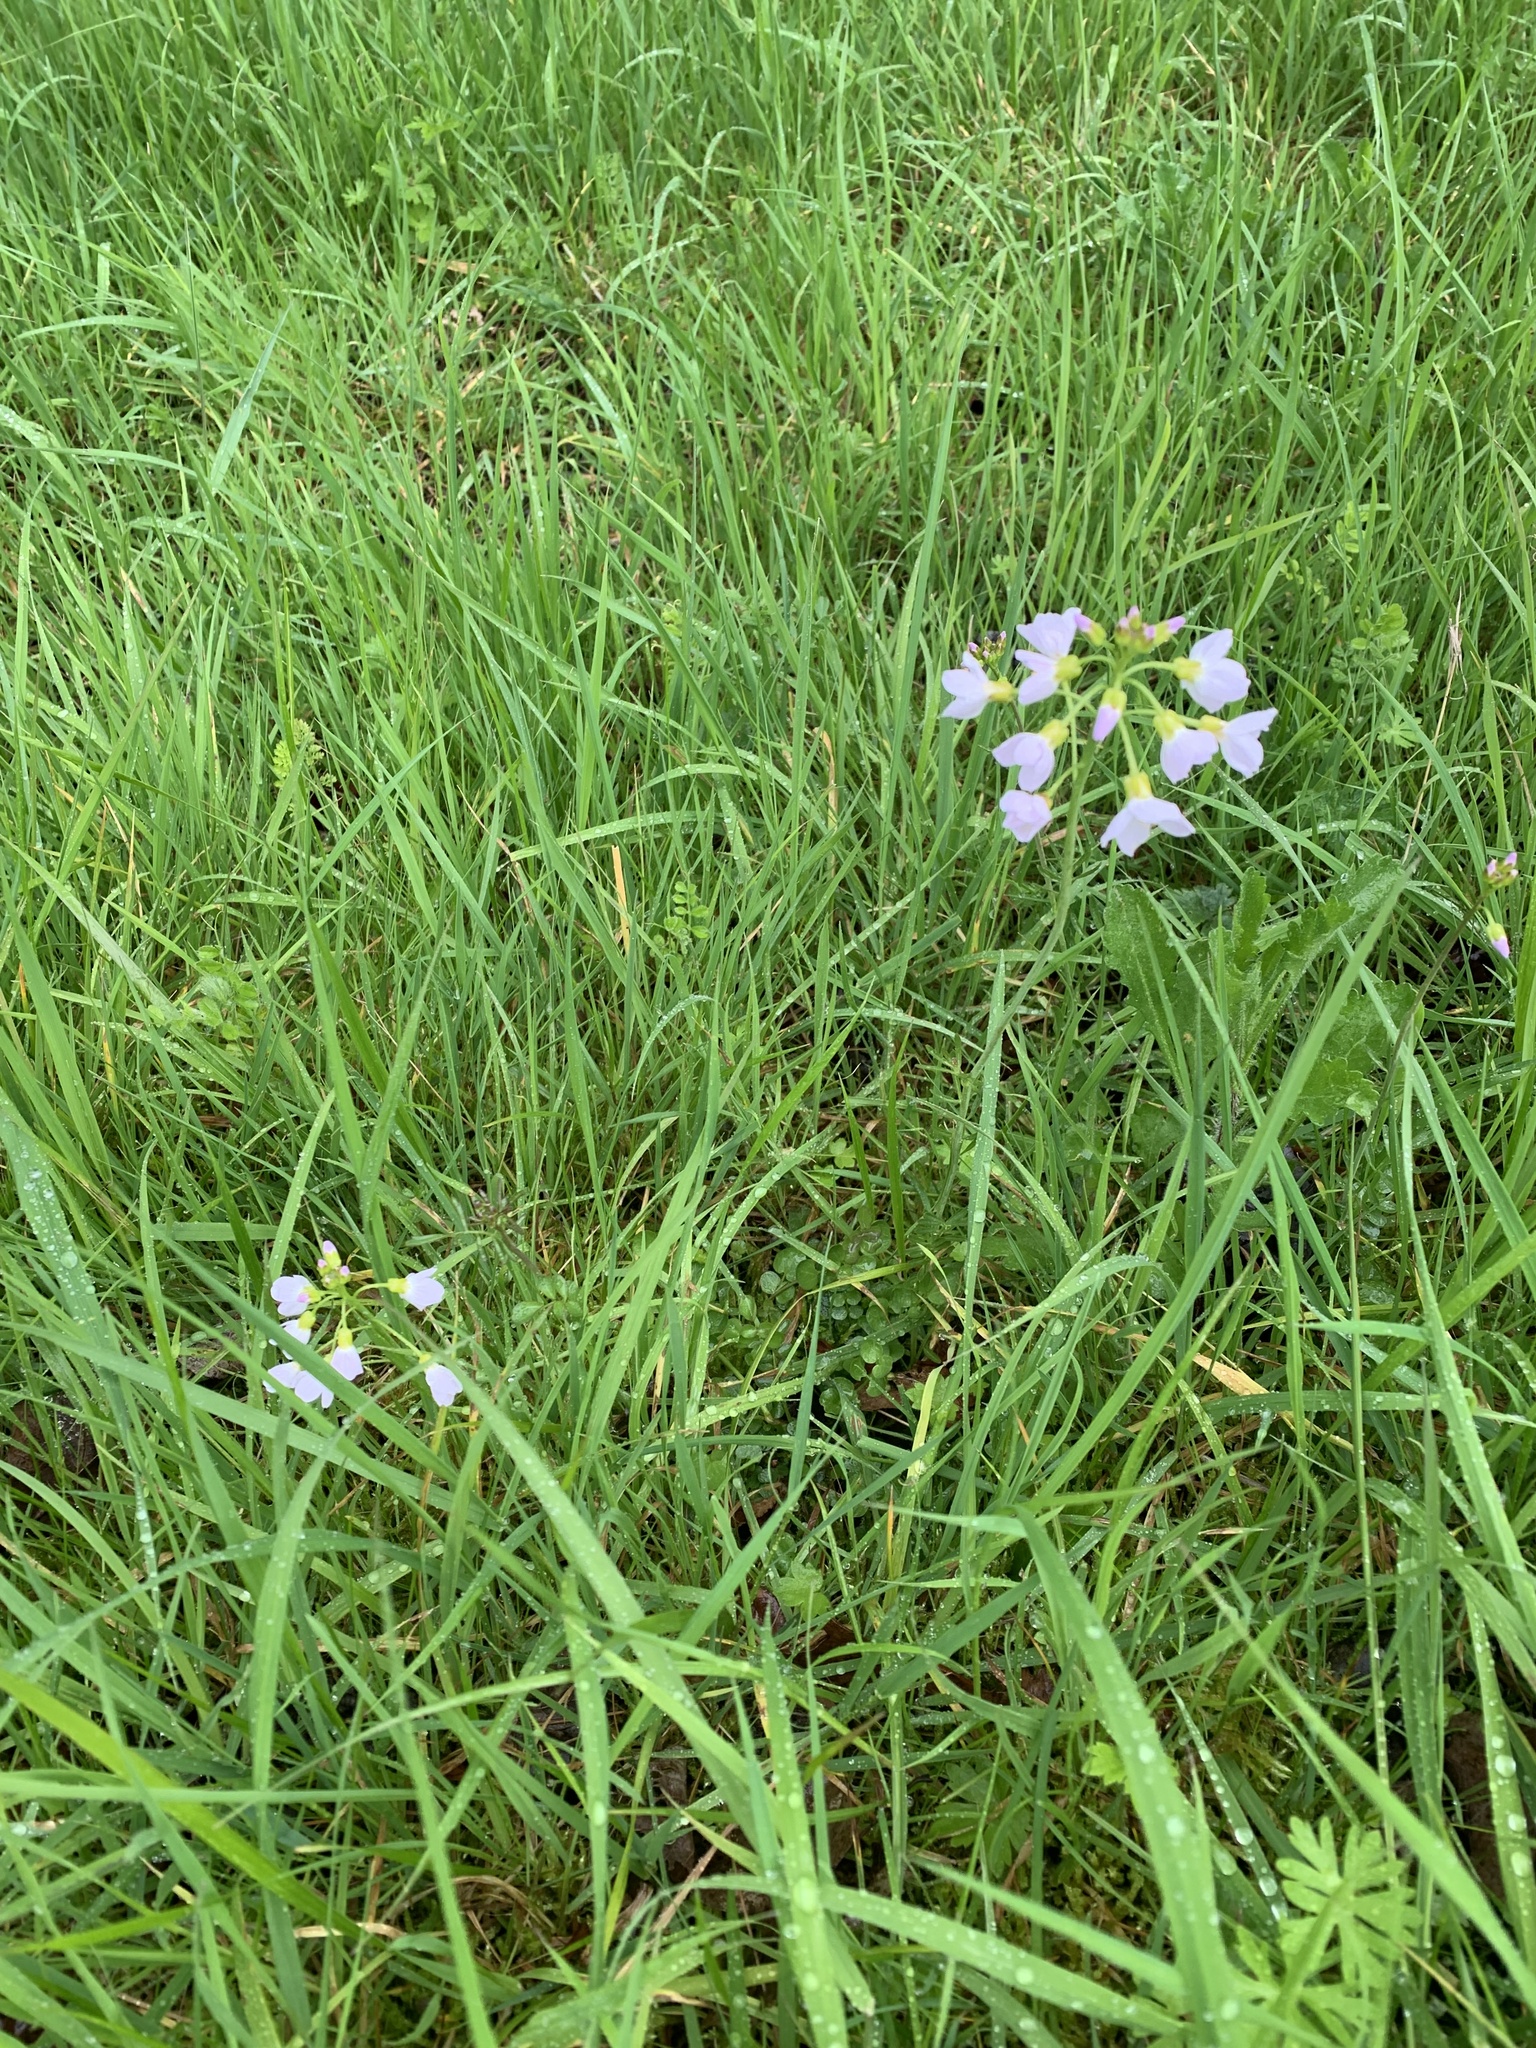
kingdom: Plantae
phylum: Tracheophyta
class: Magnoliopsida
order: Brassicales
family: Brassicaceae
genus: Cardamine
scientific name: Cardamine pratensis
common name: Cuckoo flower
